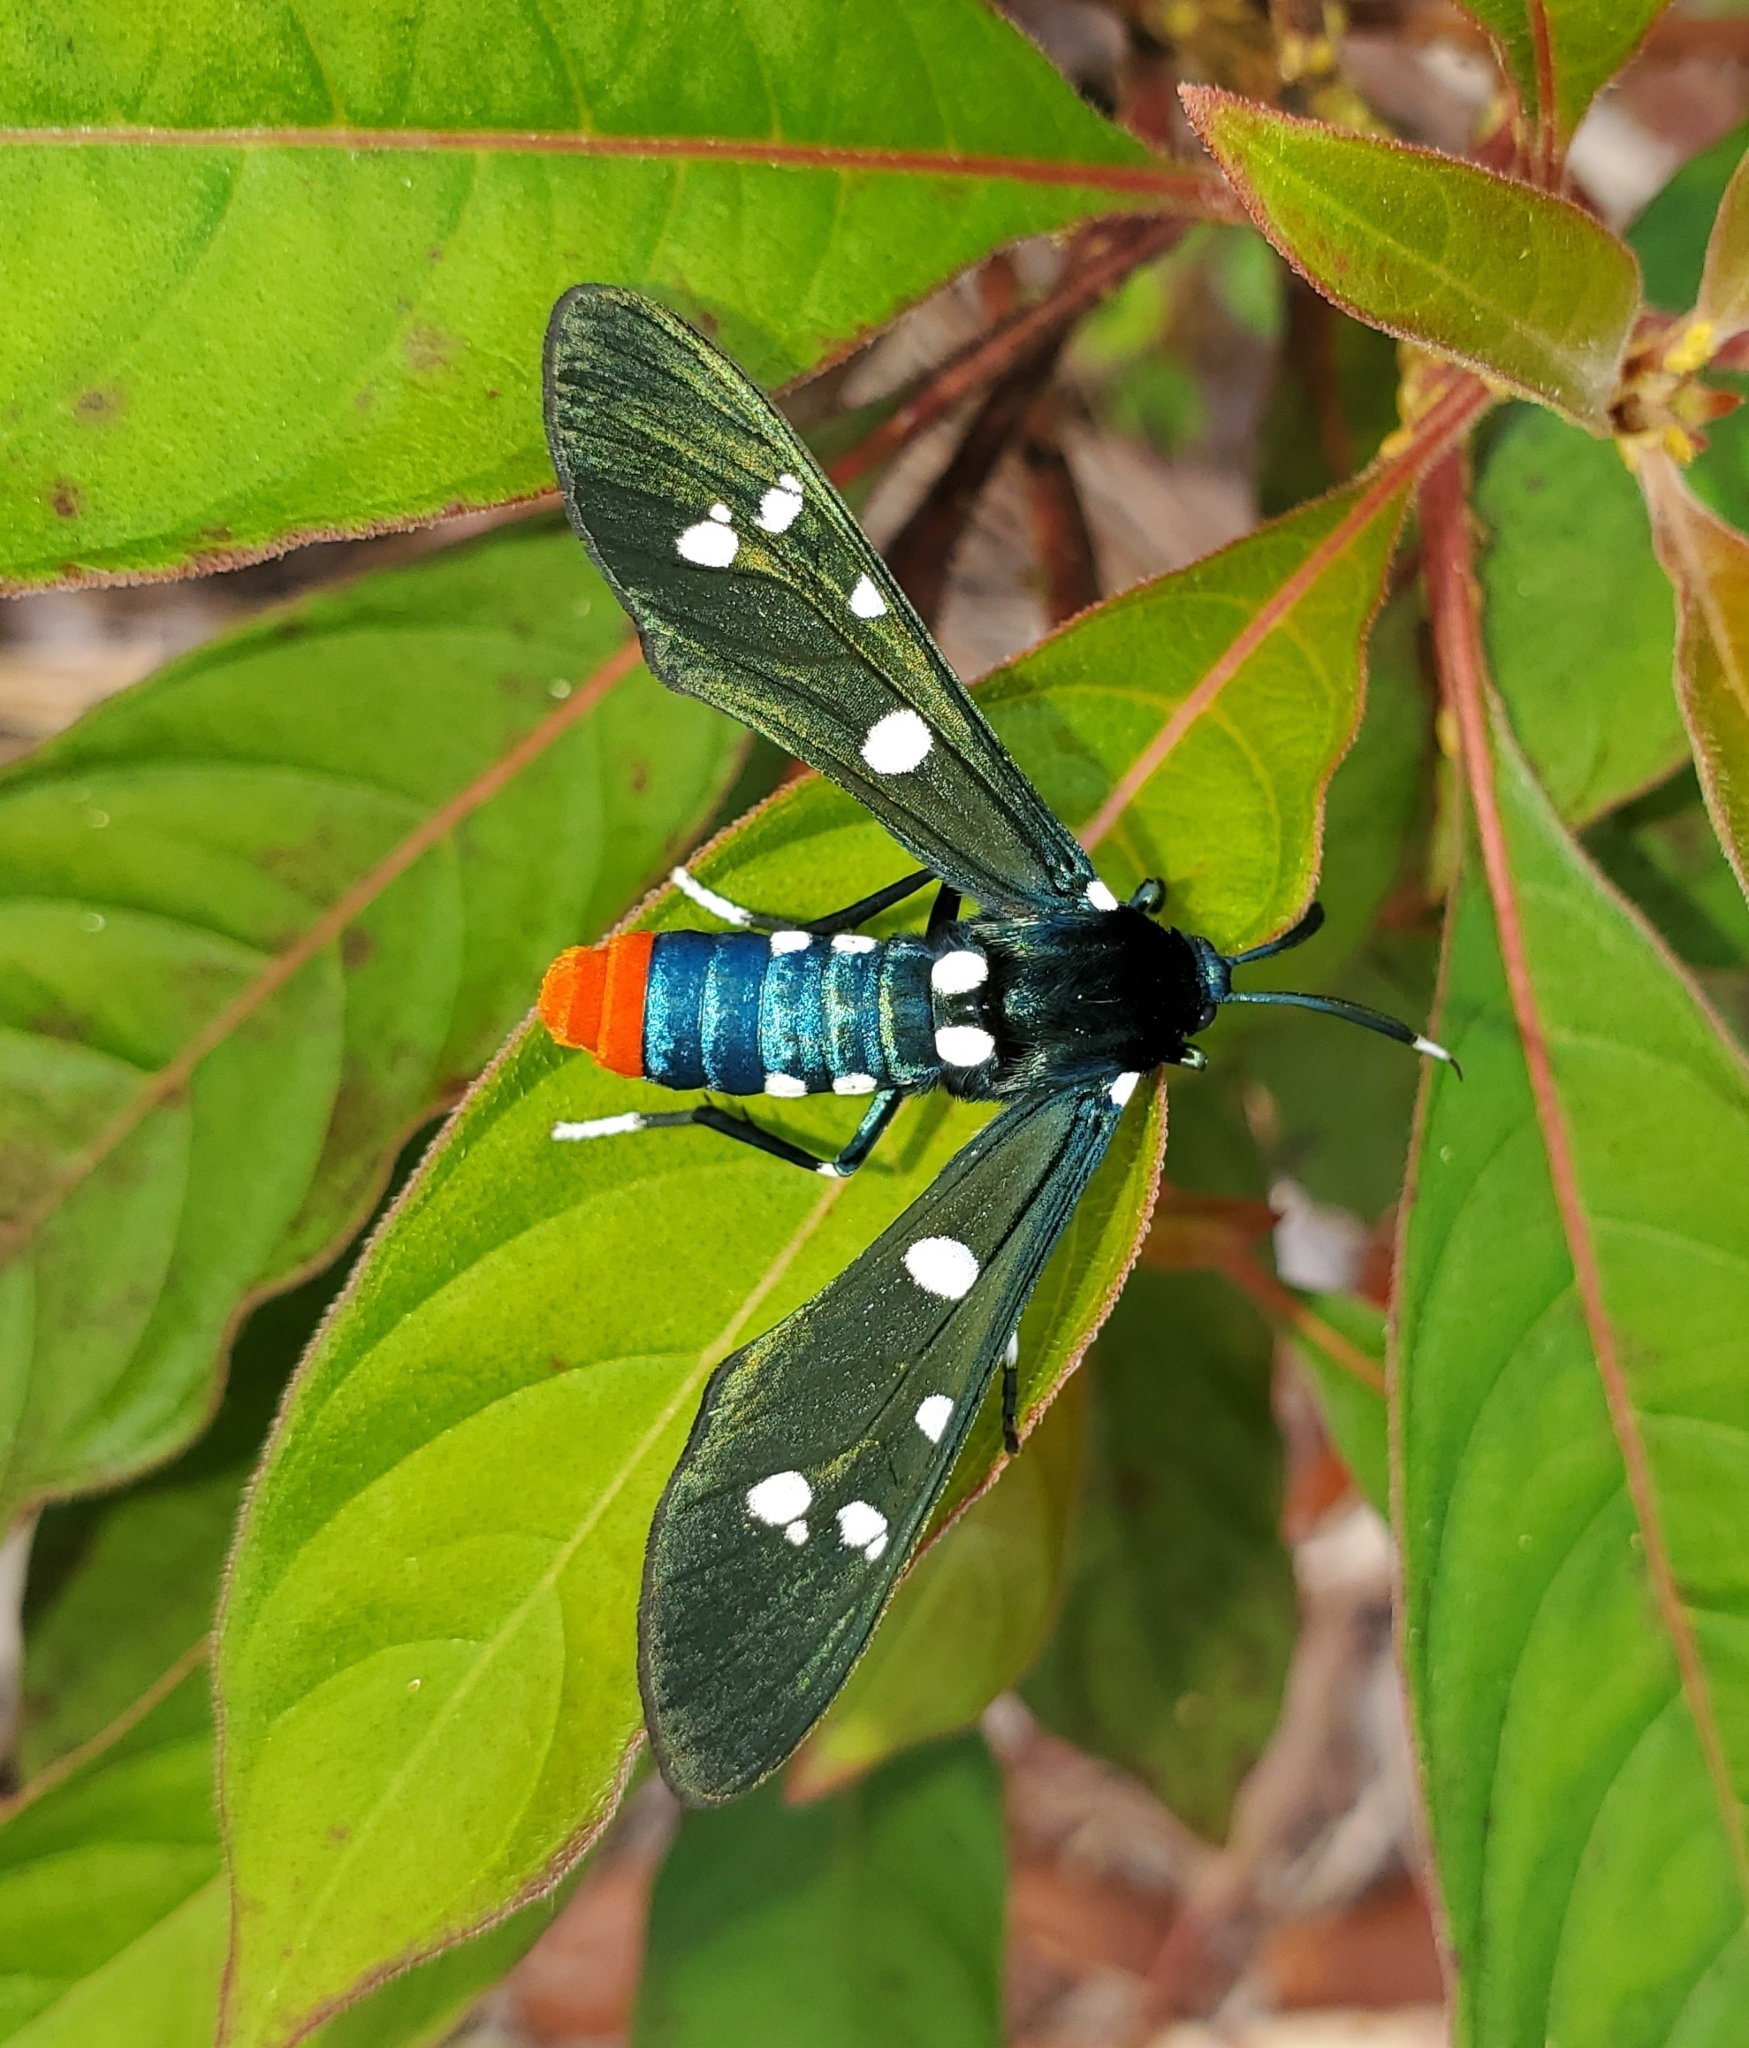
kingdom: Animalia
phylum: Arthropoda
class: Insecta
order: Lepidoptera
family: Erebidae
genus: Syntomeida
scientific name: Syntomeida epilais
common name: Polka-dot wasp moth
